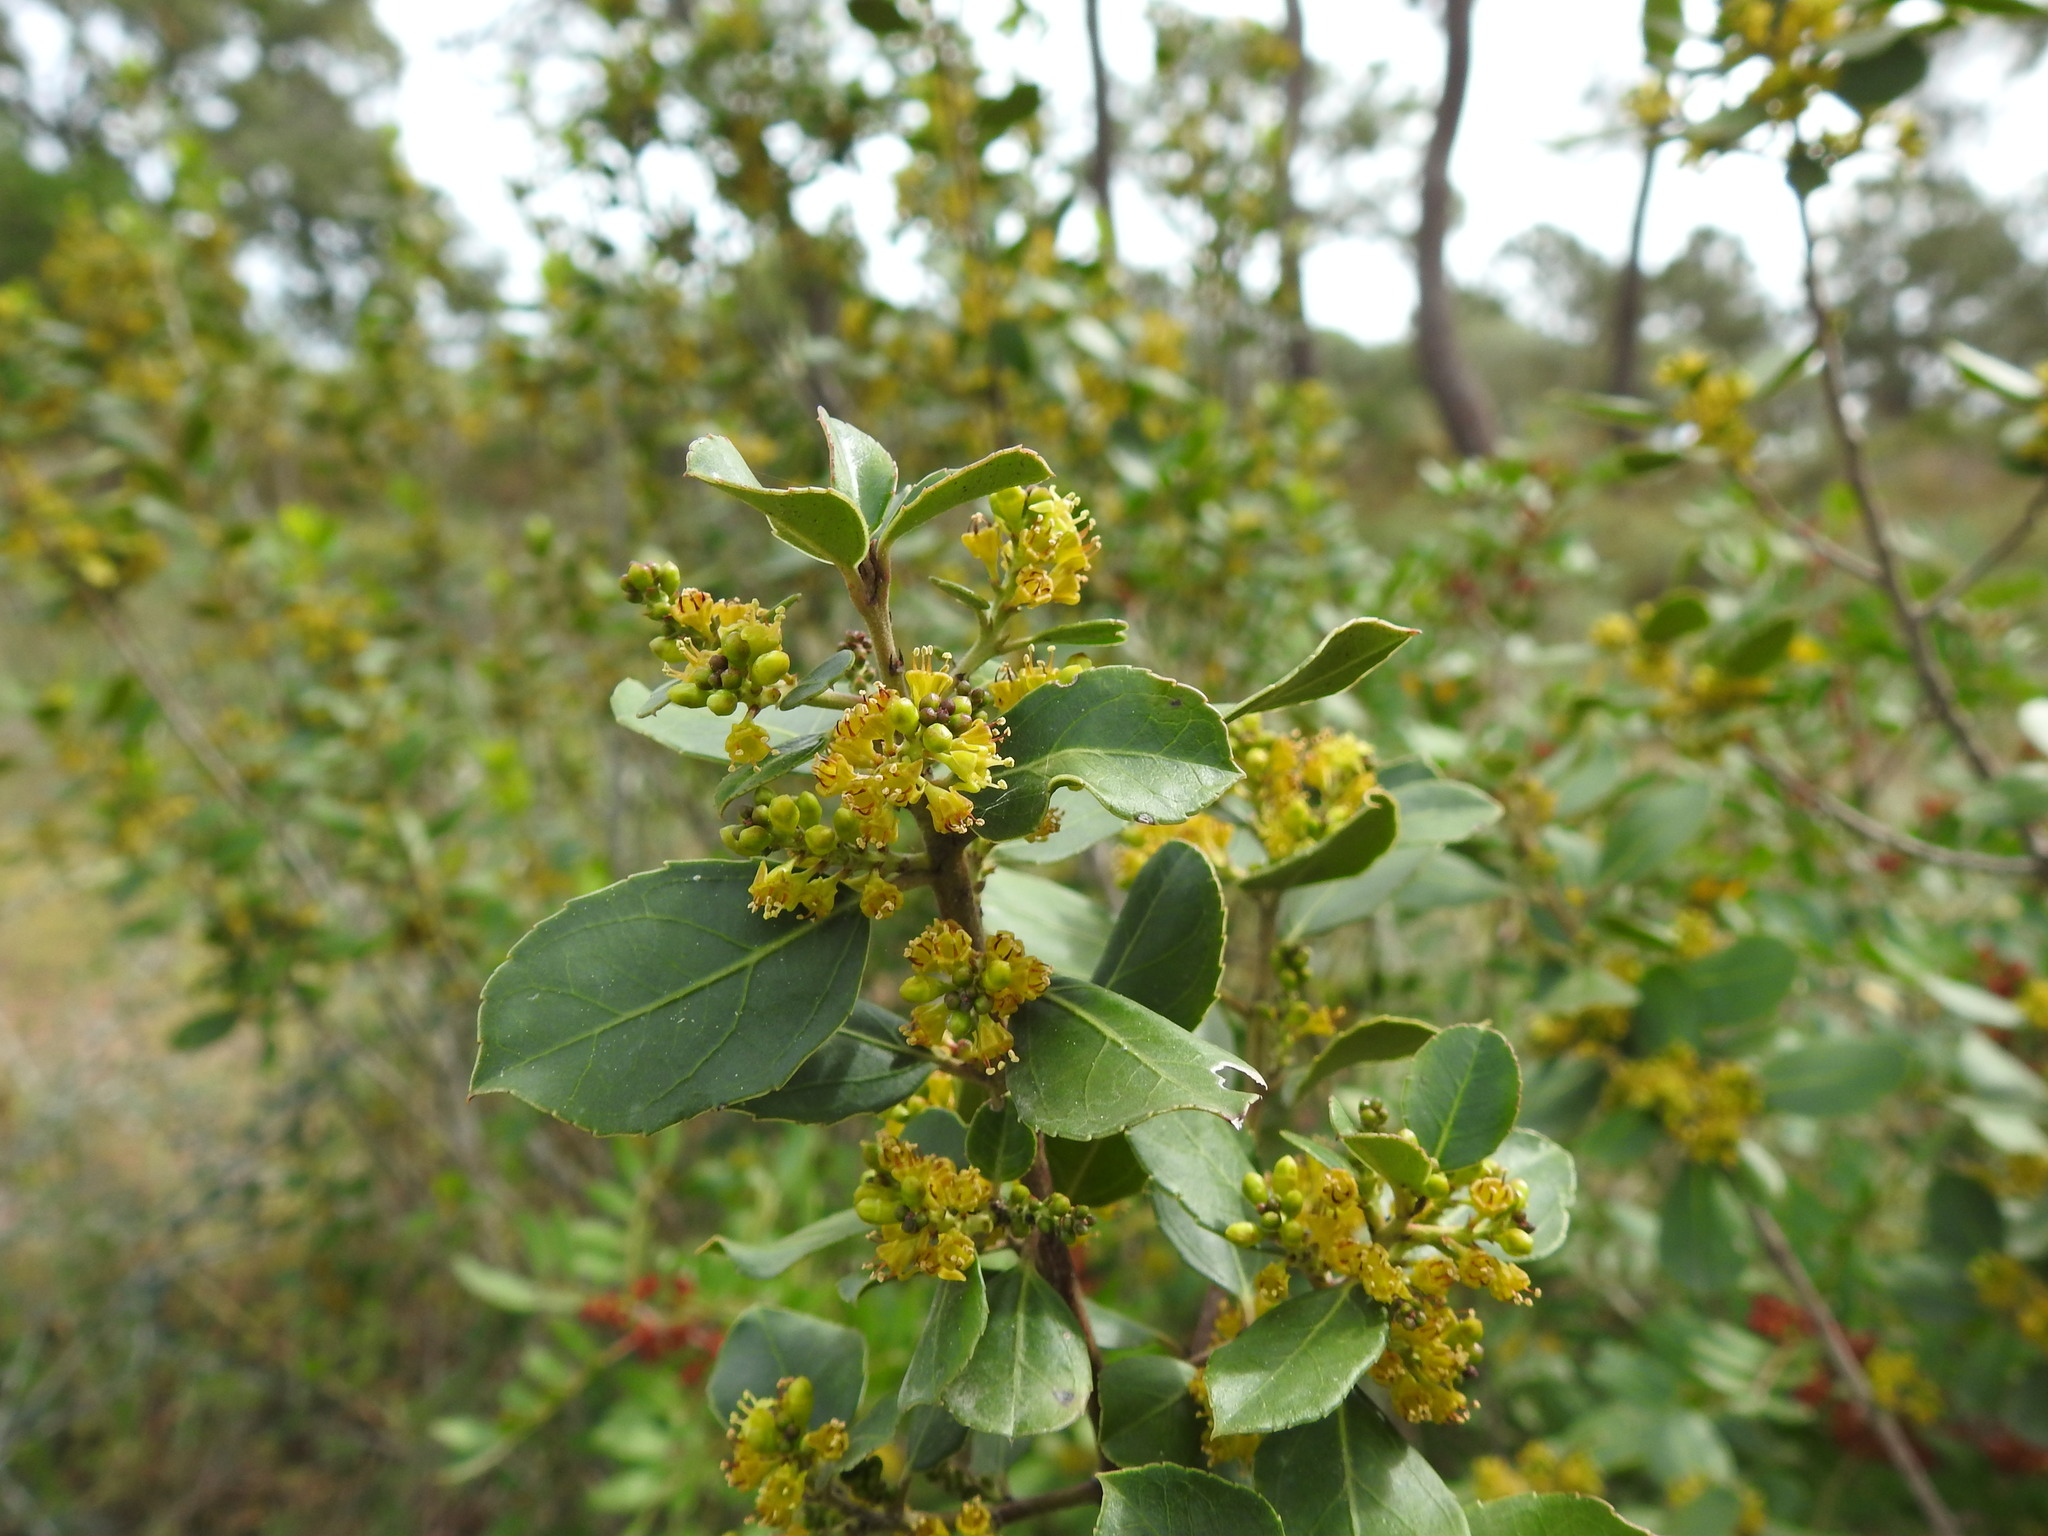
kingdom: Plantae
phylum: Tracheophyta
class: Magnoliopsida
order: Rosales
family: Rhamnaceae
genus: Rhamnus
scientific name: Rhamnus alaternus
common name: Mediterranean buckthorn
